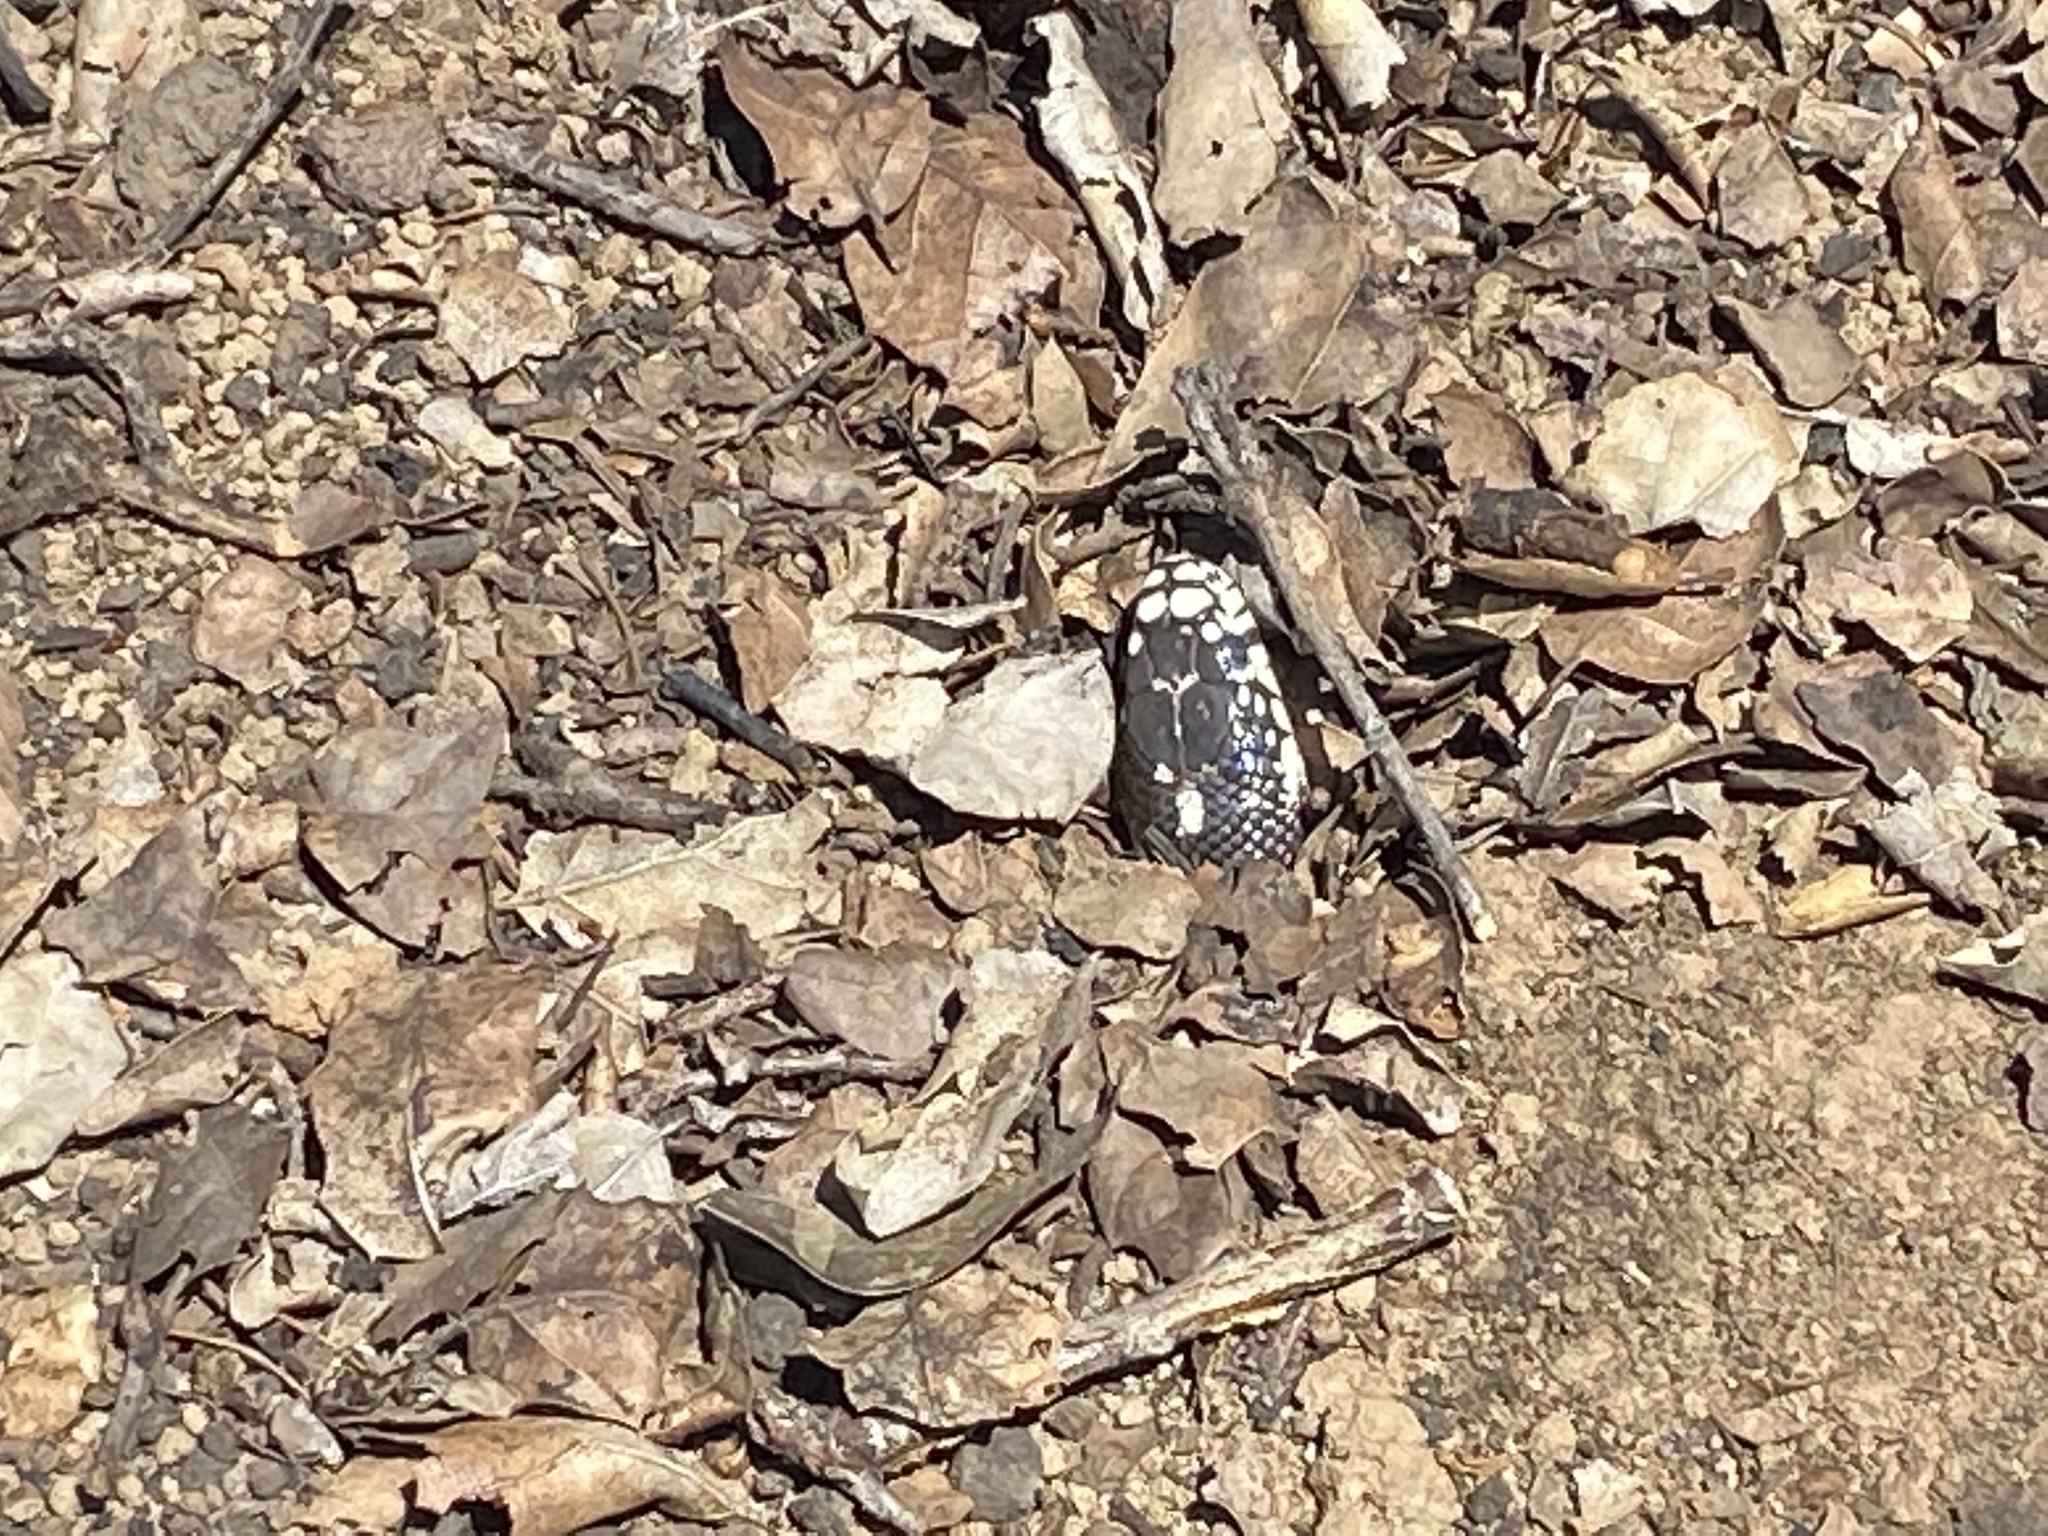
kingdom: Animalia
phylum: Chordata
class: Squamata
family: Colubridae
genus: Lampropeltis
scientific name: Lampropeltis californiae
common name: California kingsnake
